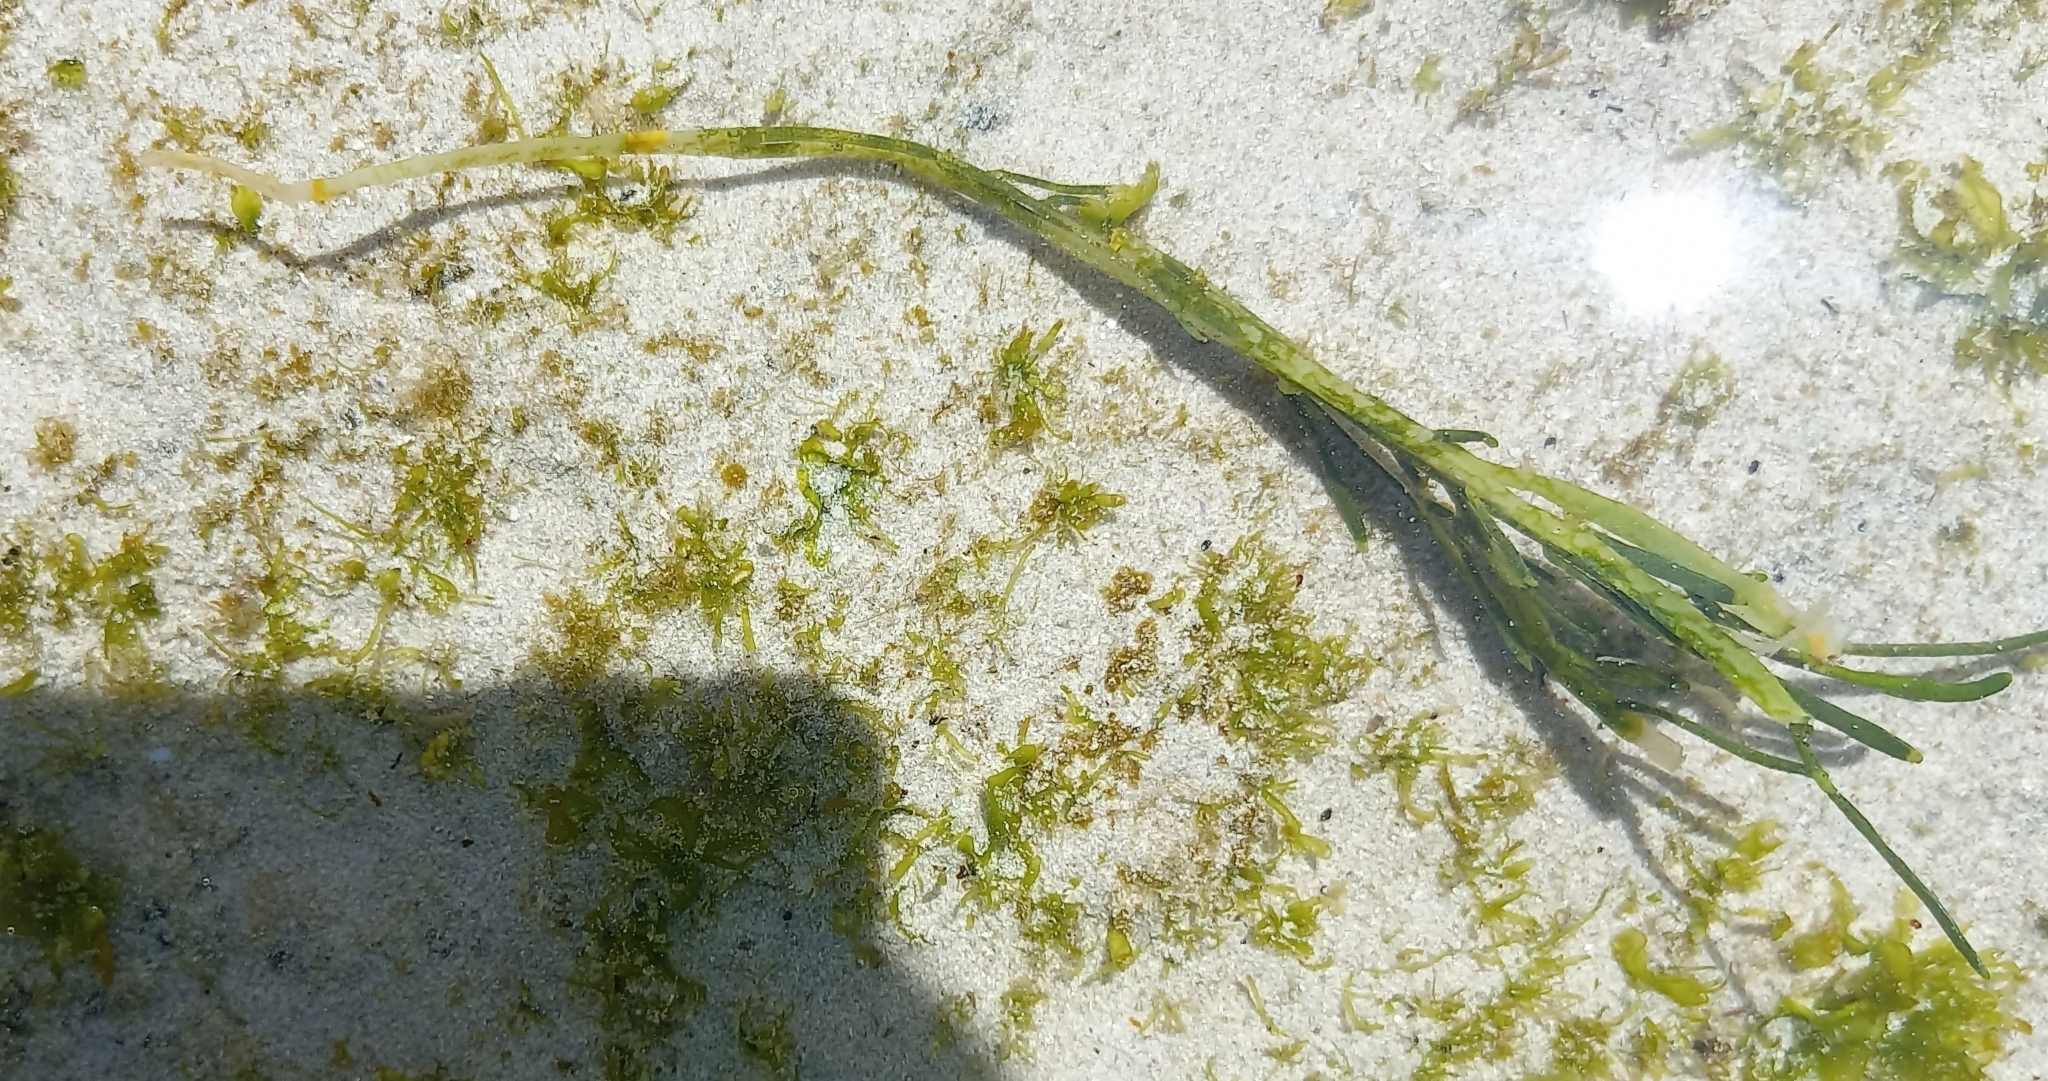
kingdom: Plantae
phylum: Chlorophyta
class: Ulvophyceae
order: Bryopsidales
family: Caulerpaceae
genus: Caulerpa
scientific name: Caulerpa filiformis
